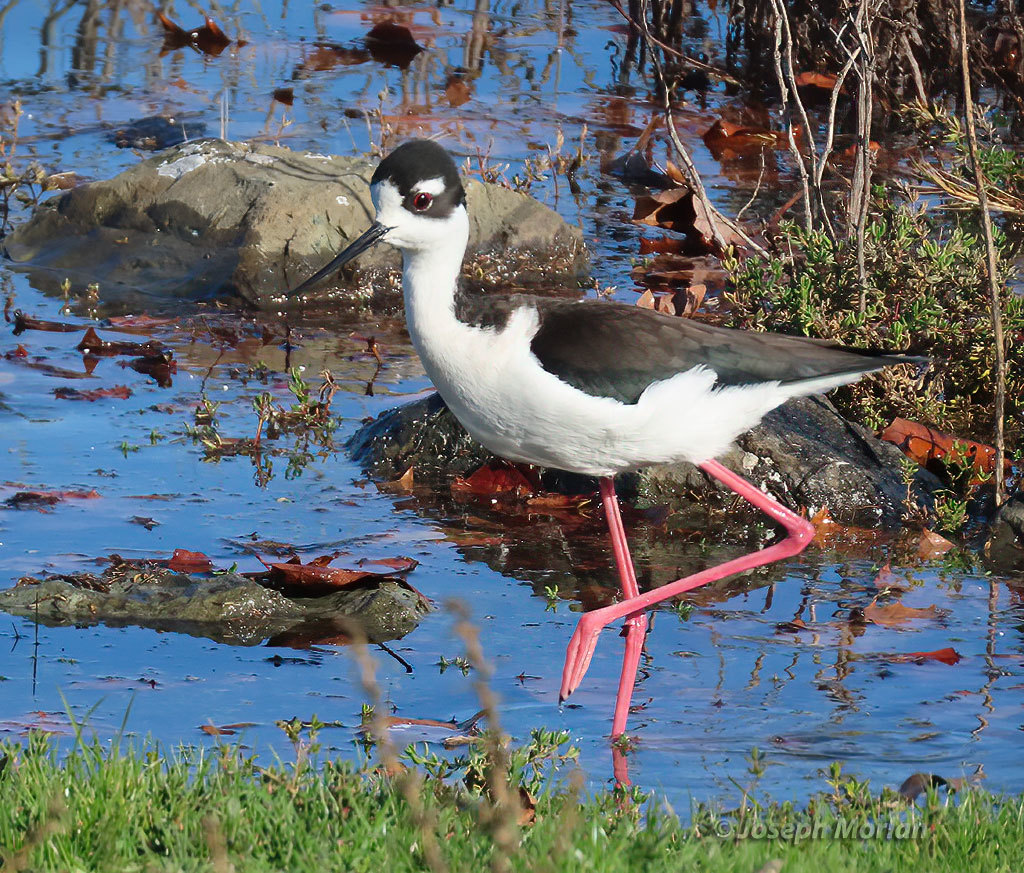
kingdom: Animalia
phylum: Chordata
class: Aves
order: Charadriiformes
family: Recurvirostridae
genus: Himantopus
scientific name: Himantopus mexicanus
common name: Black-necked stilt
